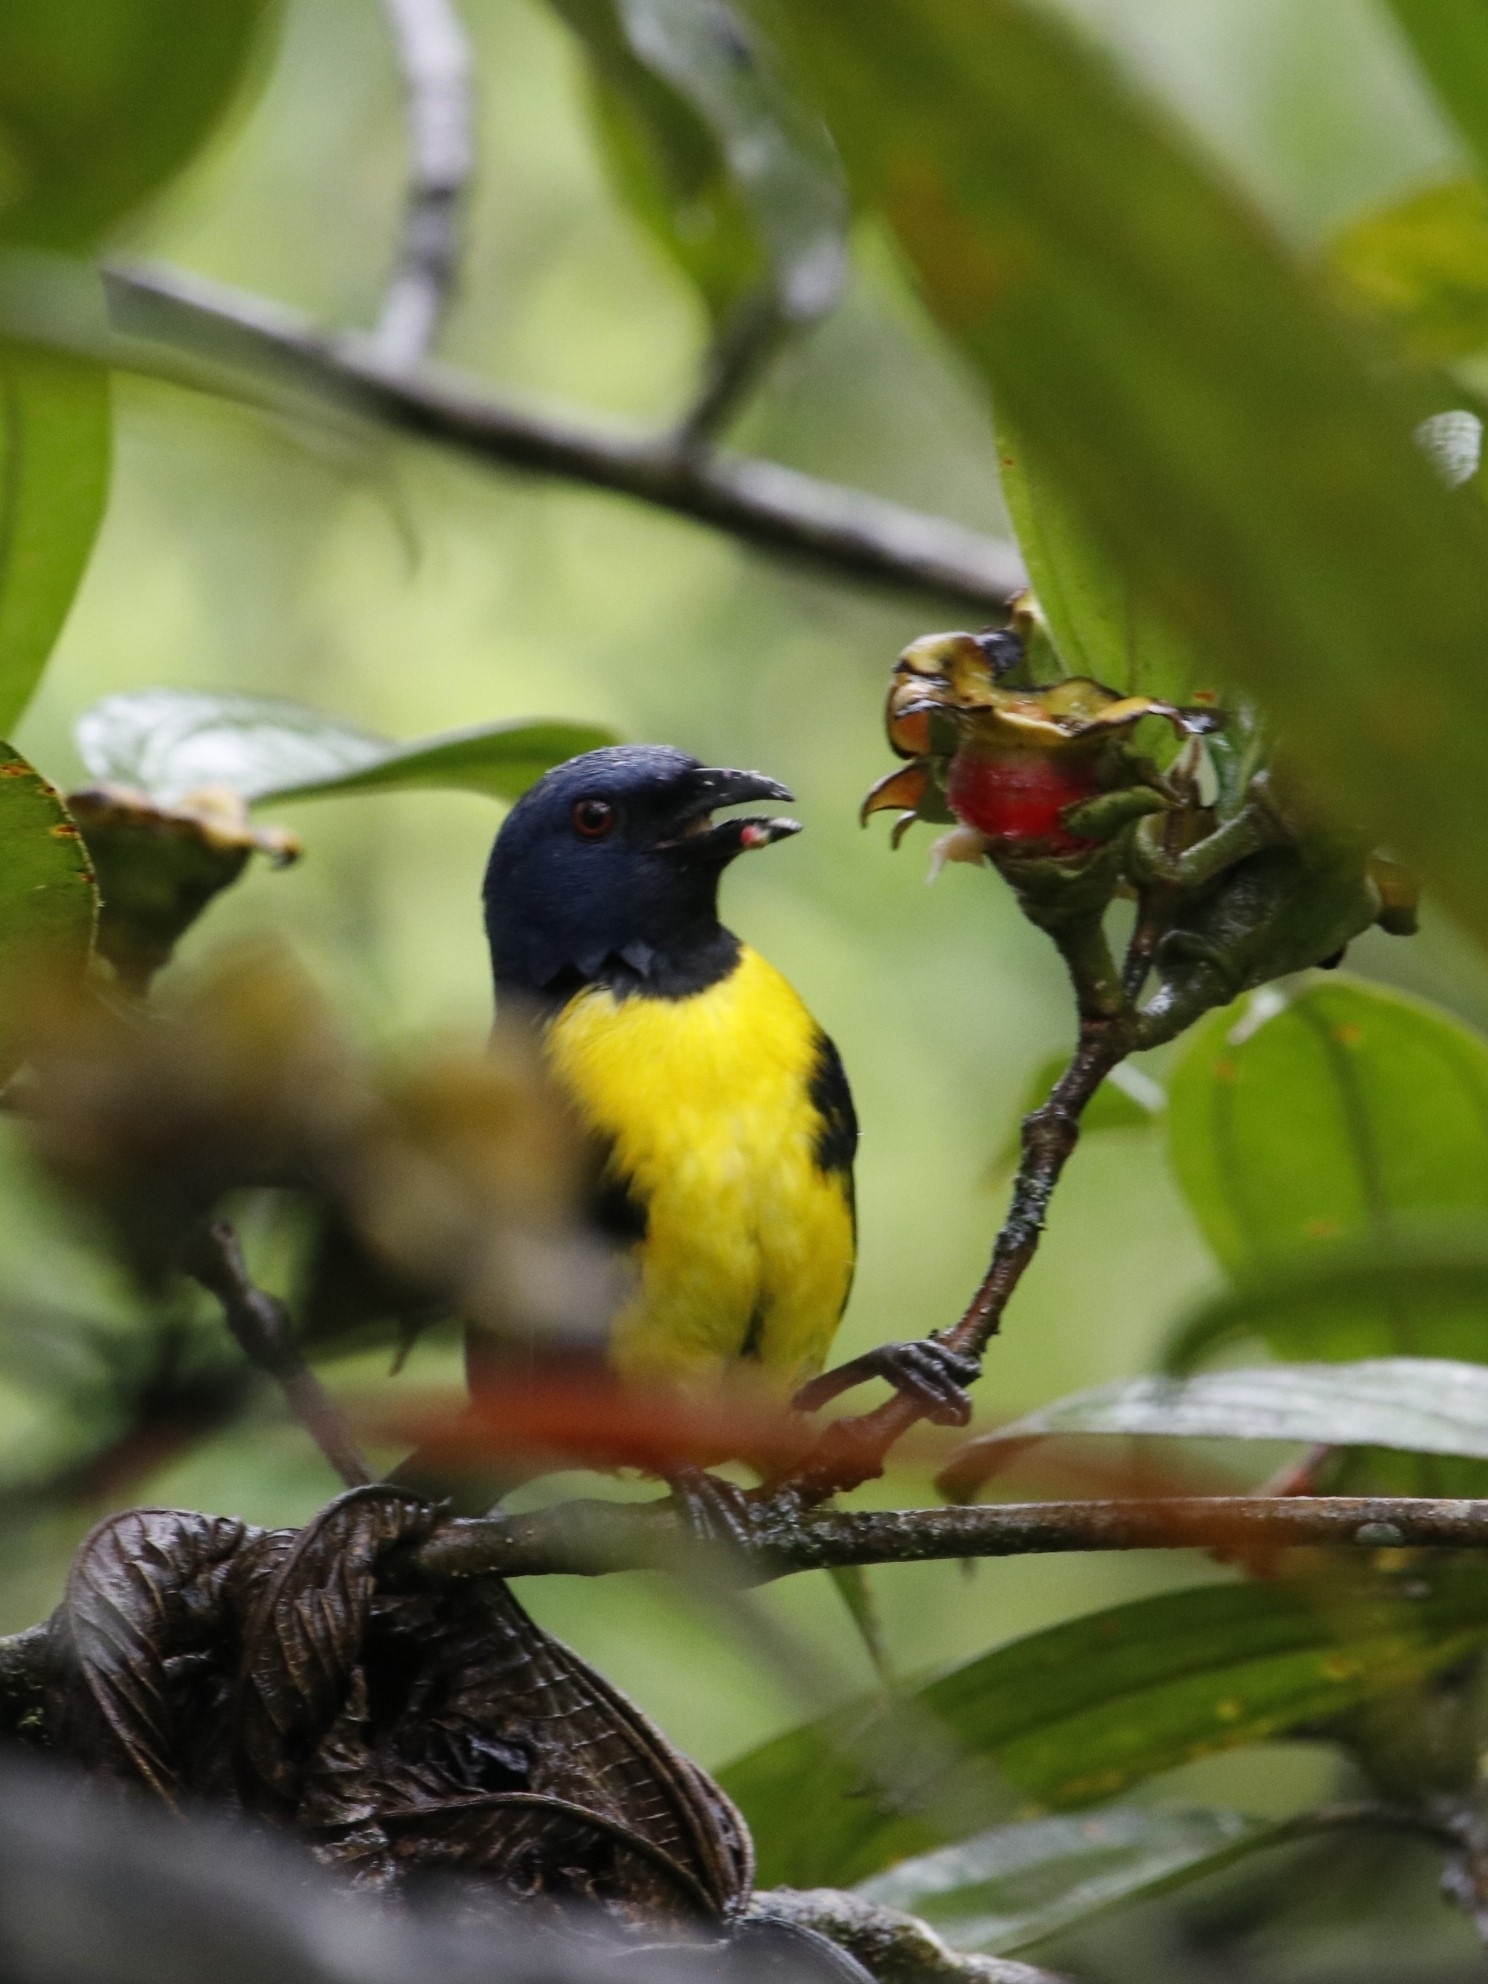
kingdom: Animalia
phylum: Chordata
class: Aves
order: Passeriformes
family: Thraupidae
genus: Bangsia
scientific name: Bangsia arcaei
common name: Blue-and-gold tanager
